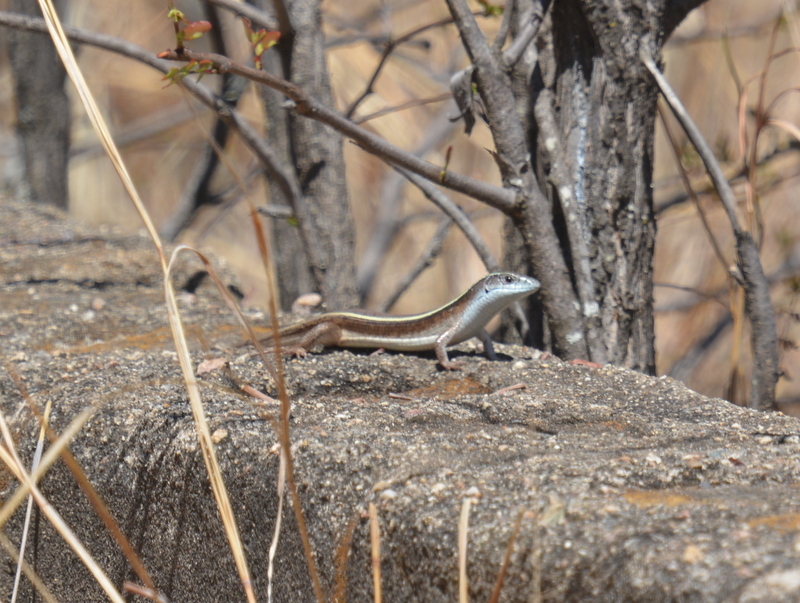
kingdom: Animalia
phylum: Chordata
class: Squamata
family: Gerrhosauridae
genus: Gerrhosaurus
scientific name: Gerrhosaurus flavigularis
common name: Yellow-throated plated lizard
